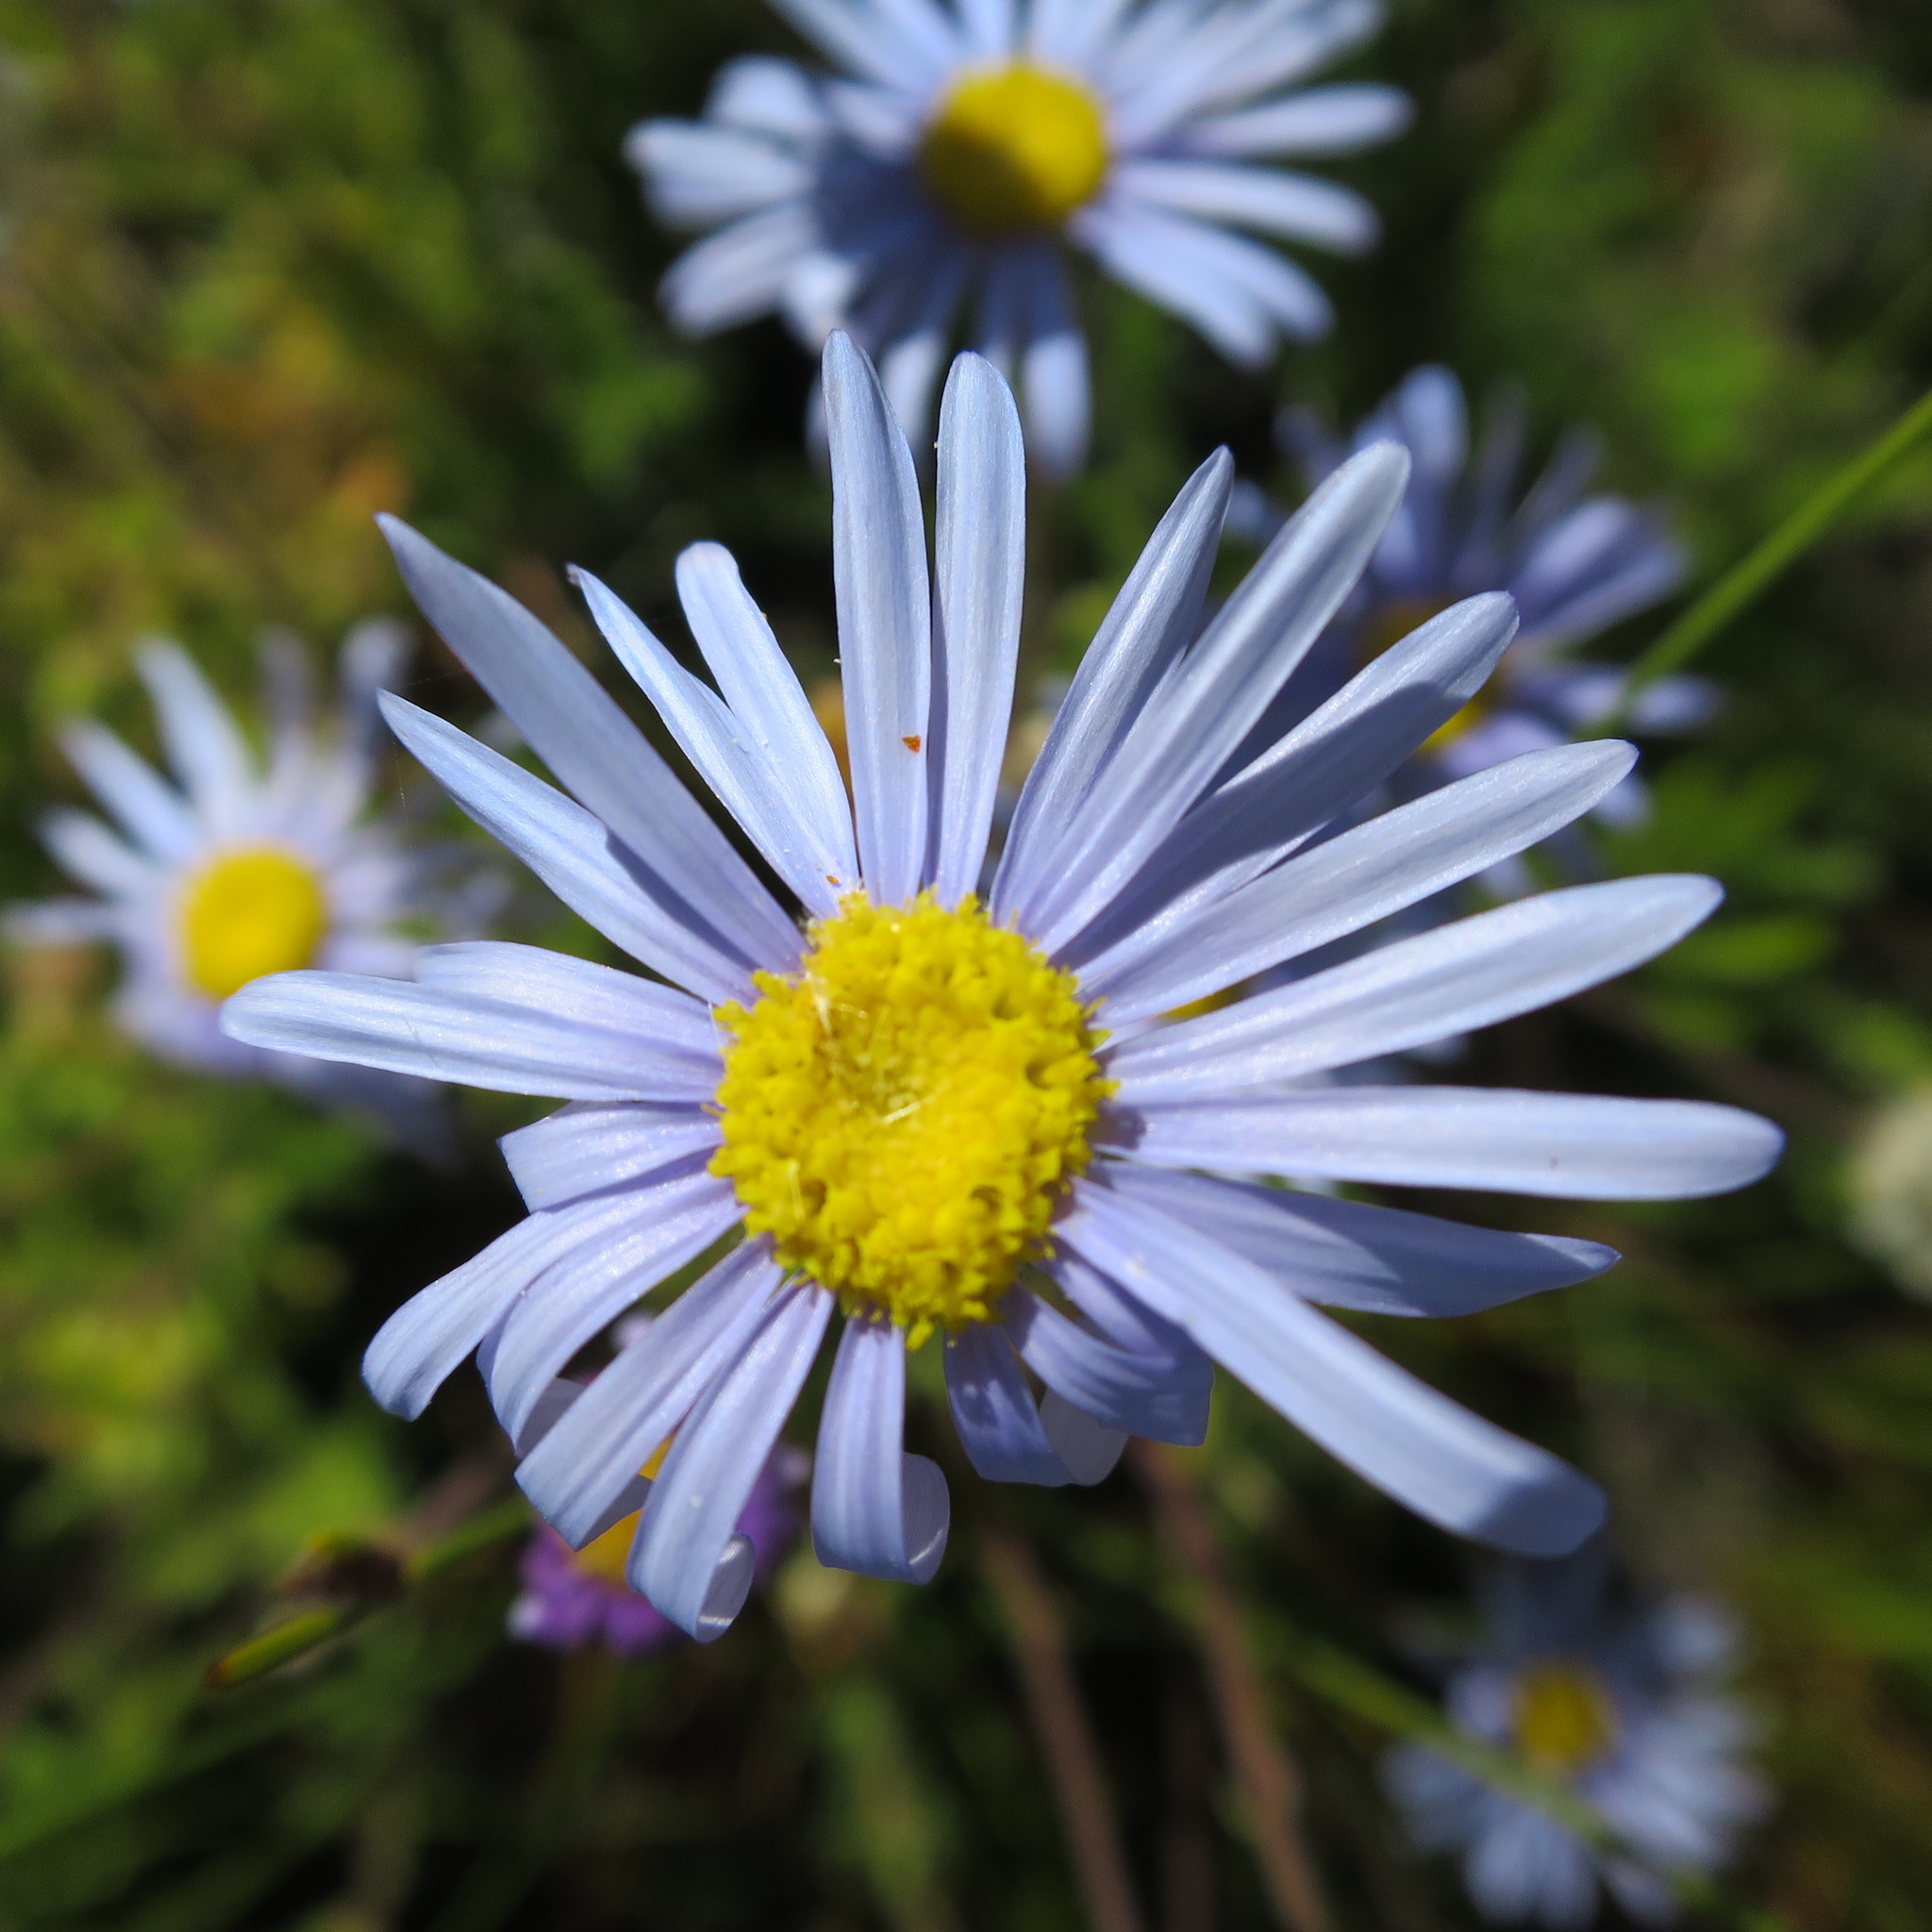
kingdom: Plantae
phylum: Tracheophyta
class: Magnoliopsida
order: Asterales
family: Asteraceae
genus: Felicia
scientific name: Felicia amoena
